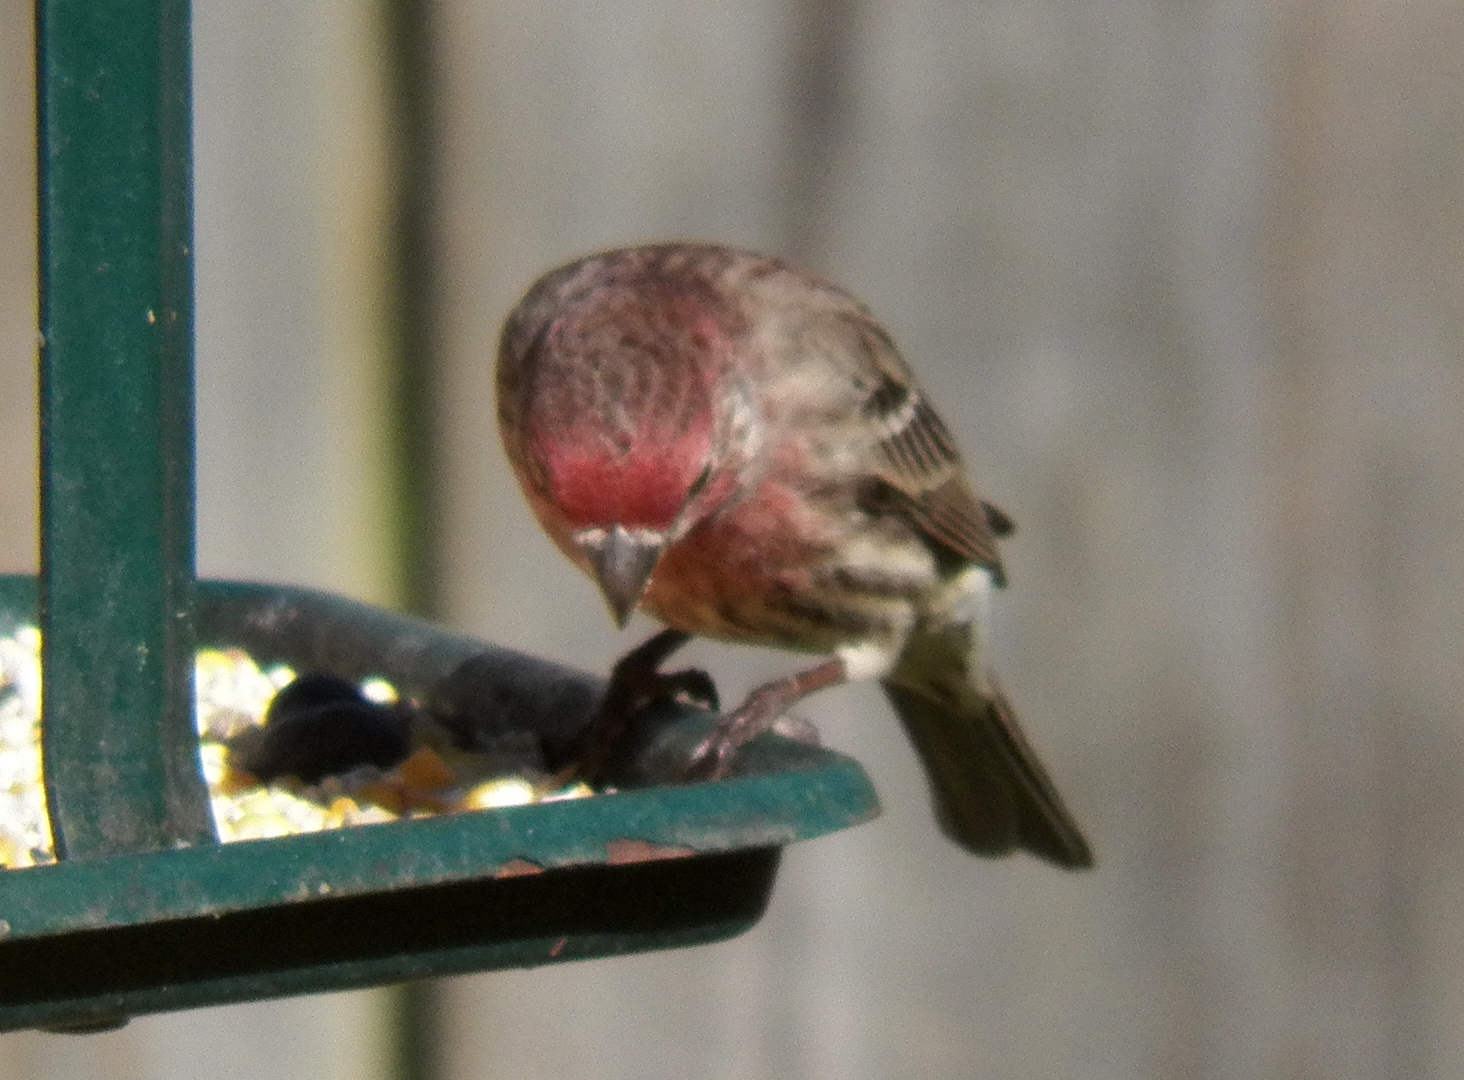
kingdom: Animalia
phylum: Chordata
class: Aves
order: Passeriformes
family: Fringillidae
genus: Haemorhous
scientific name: Haemorhous mexicanus
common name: House finch
